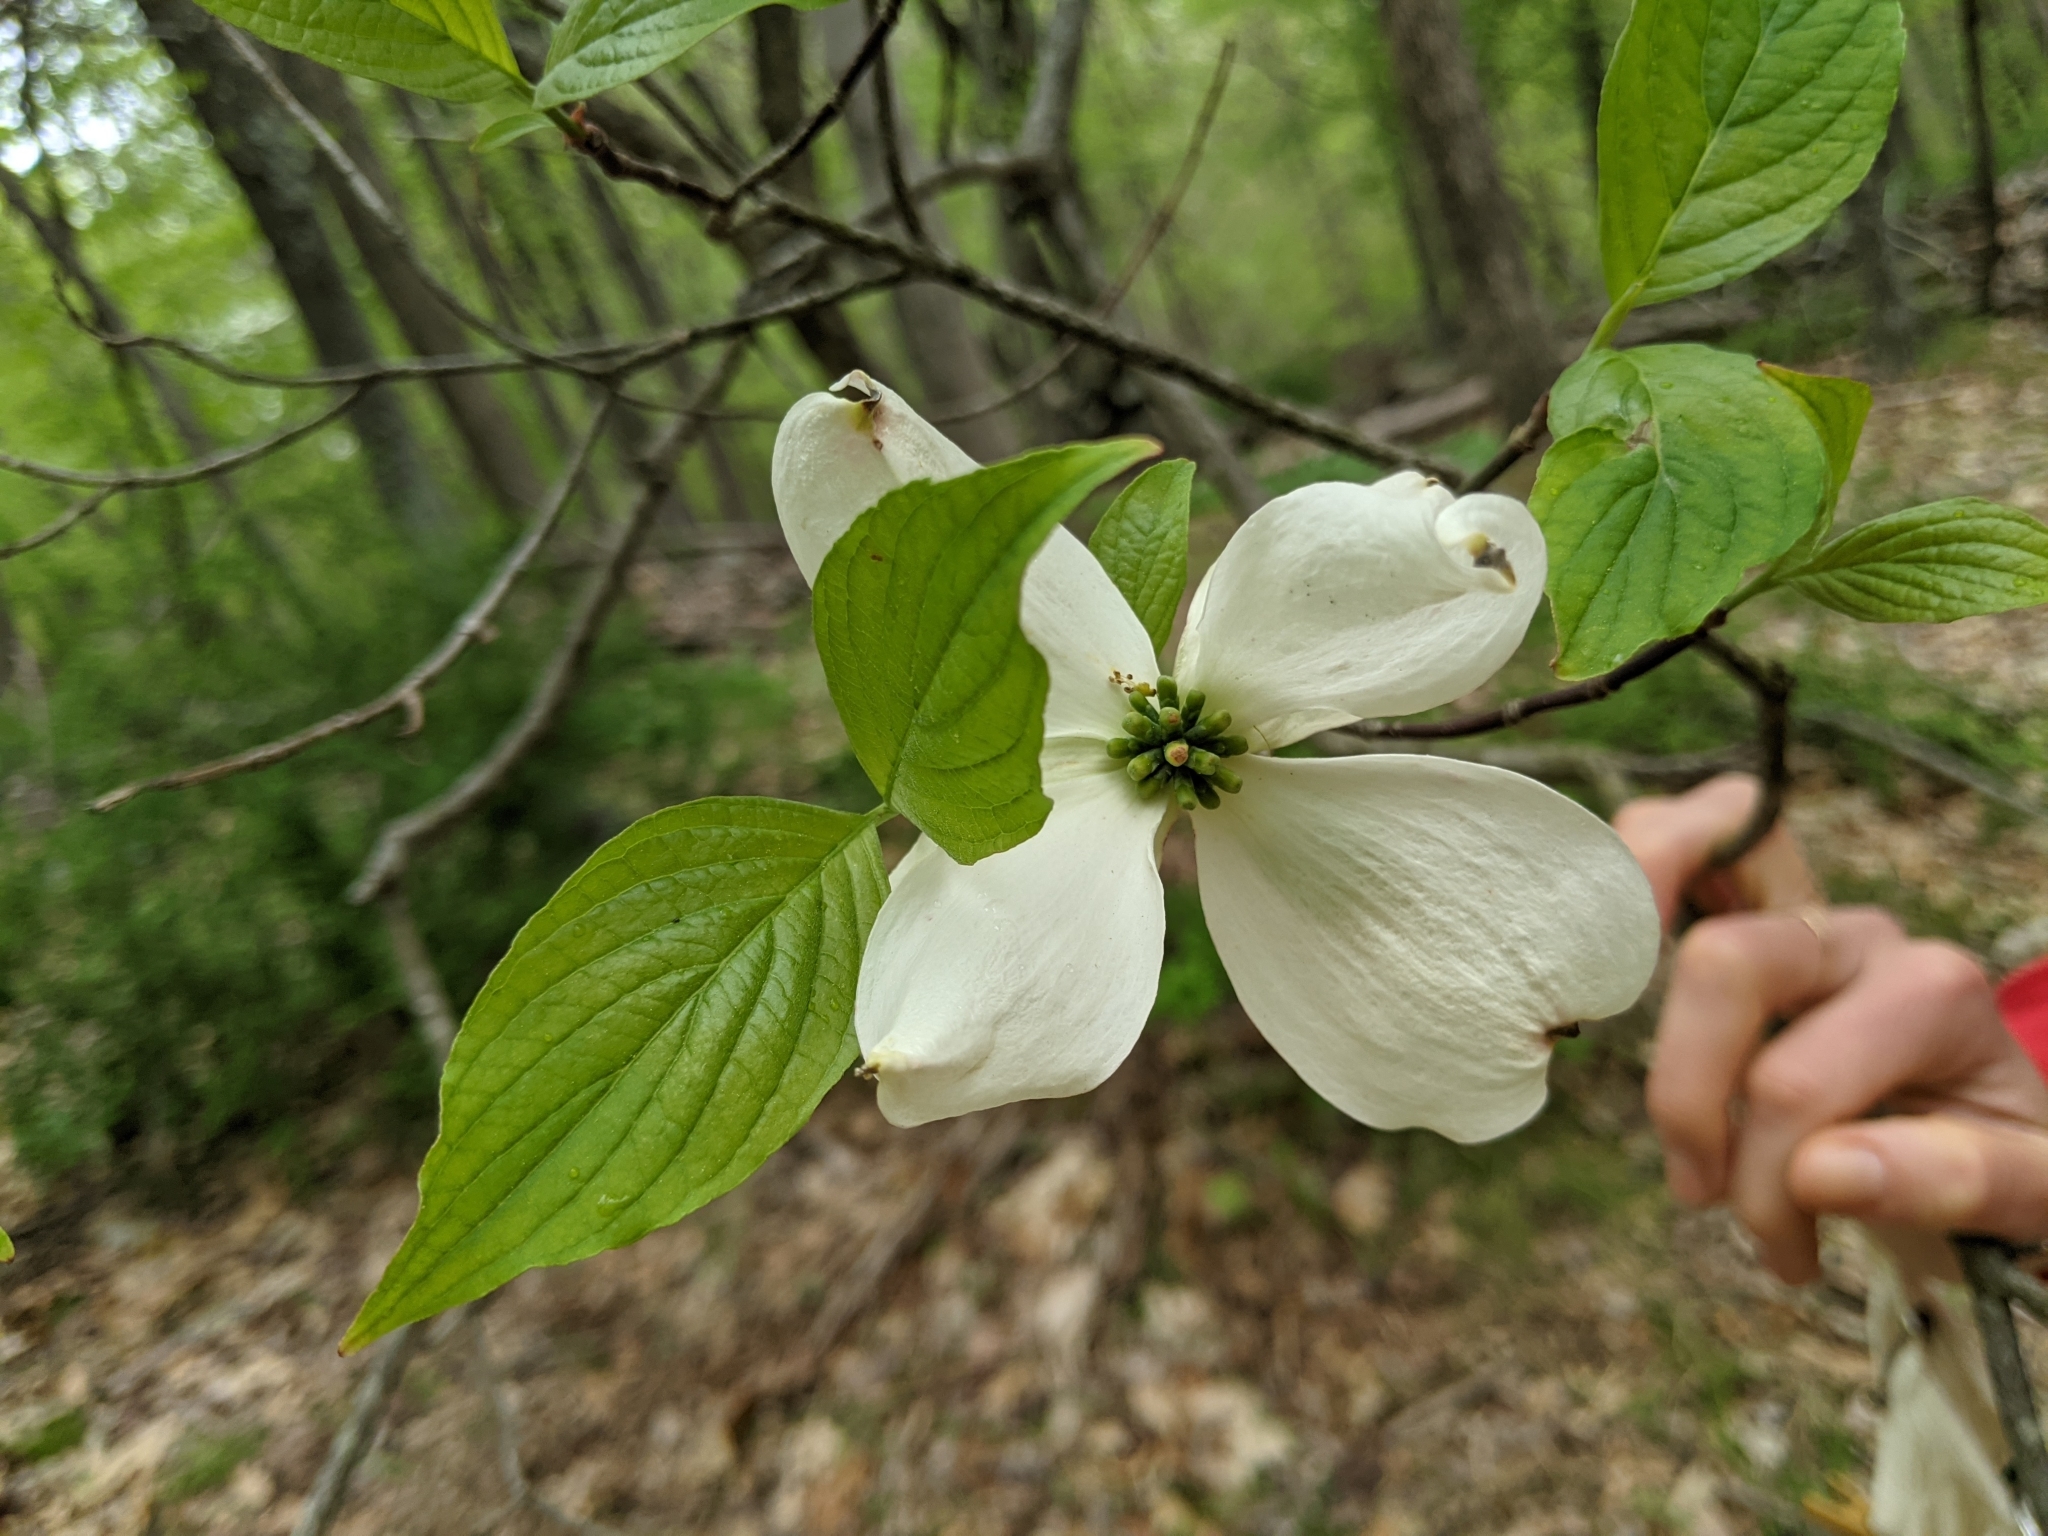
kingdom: Plantae
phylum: Tracheophyta
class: Magnoliopsida
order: Cornales
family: Cornaceae
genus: Cornus
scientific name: Cornus florida
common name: Flowering dogwood
